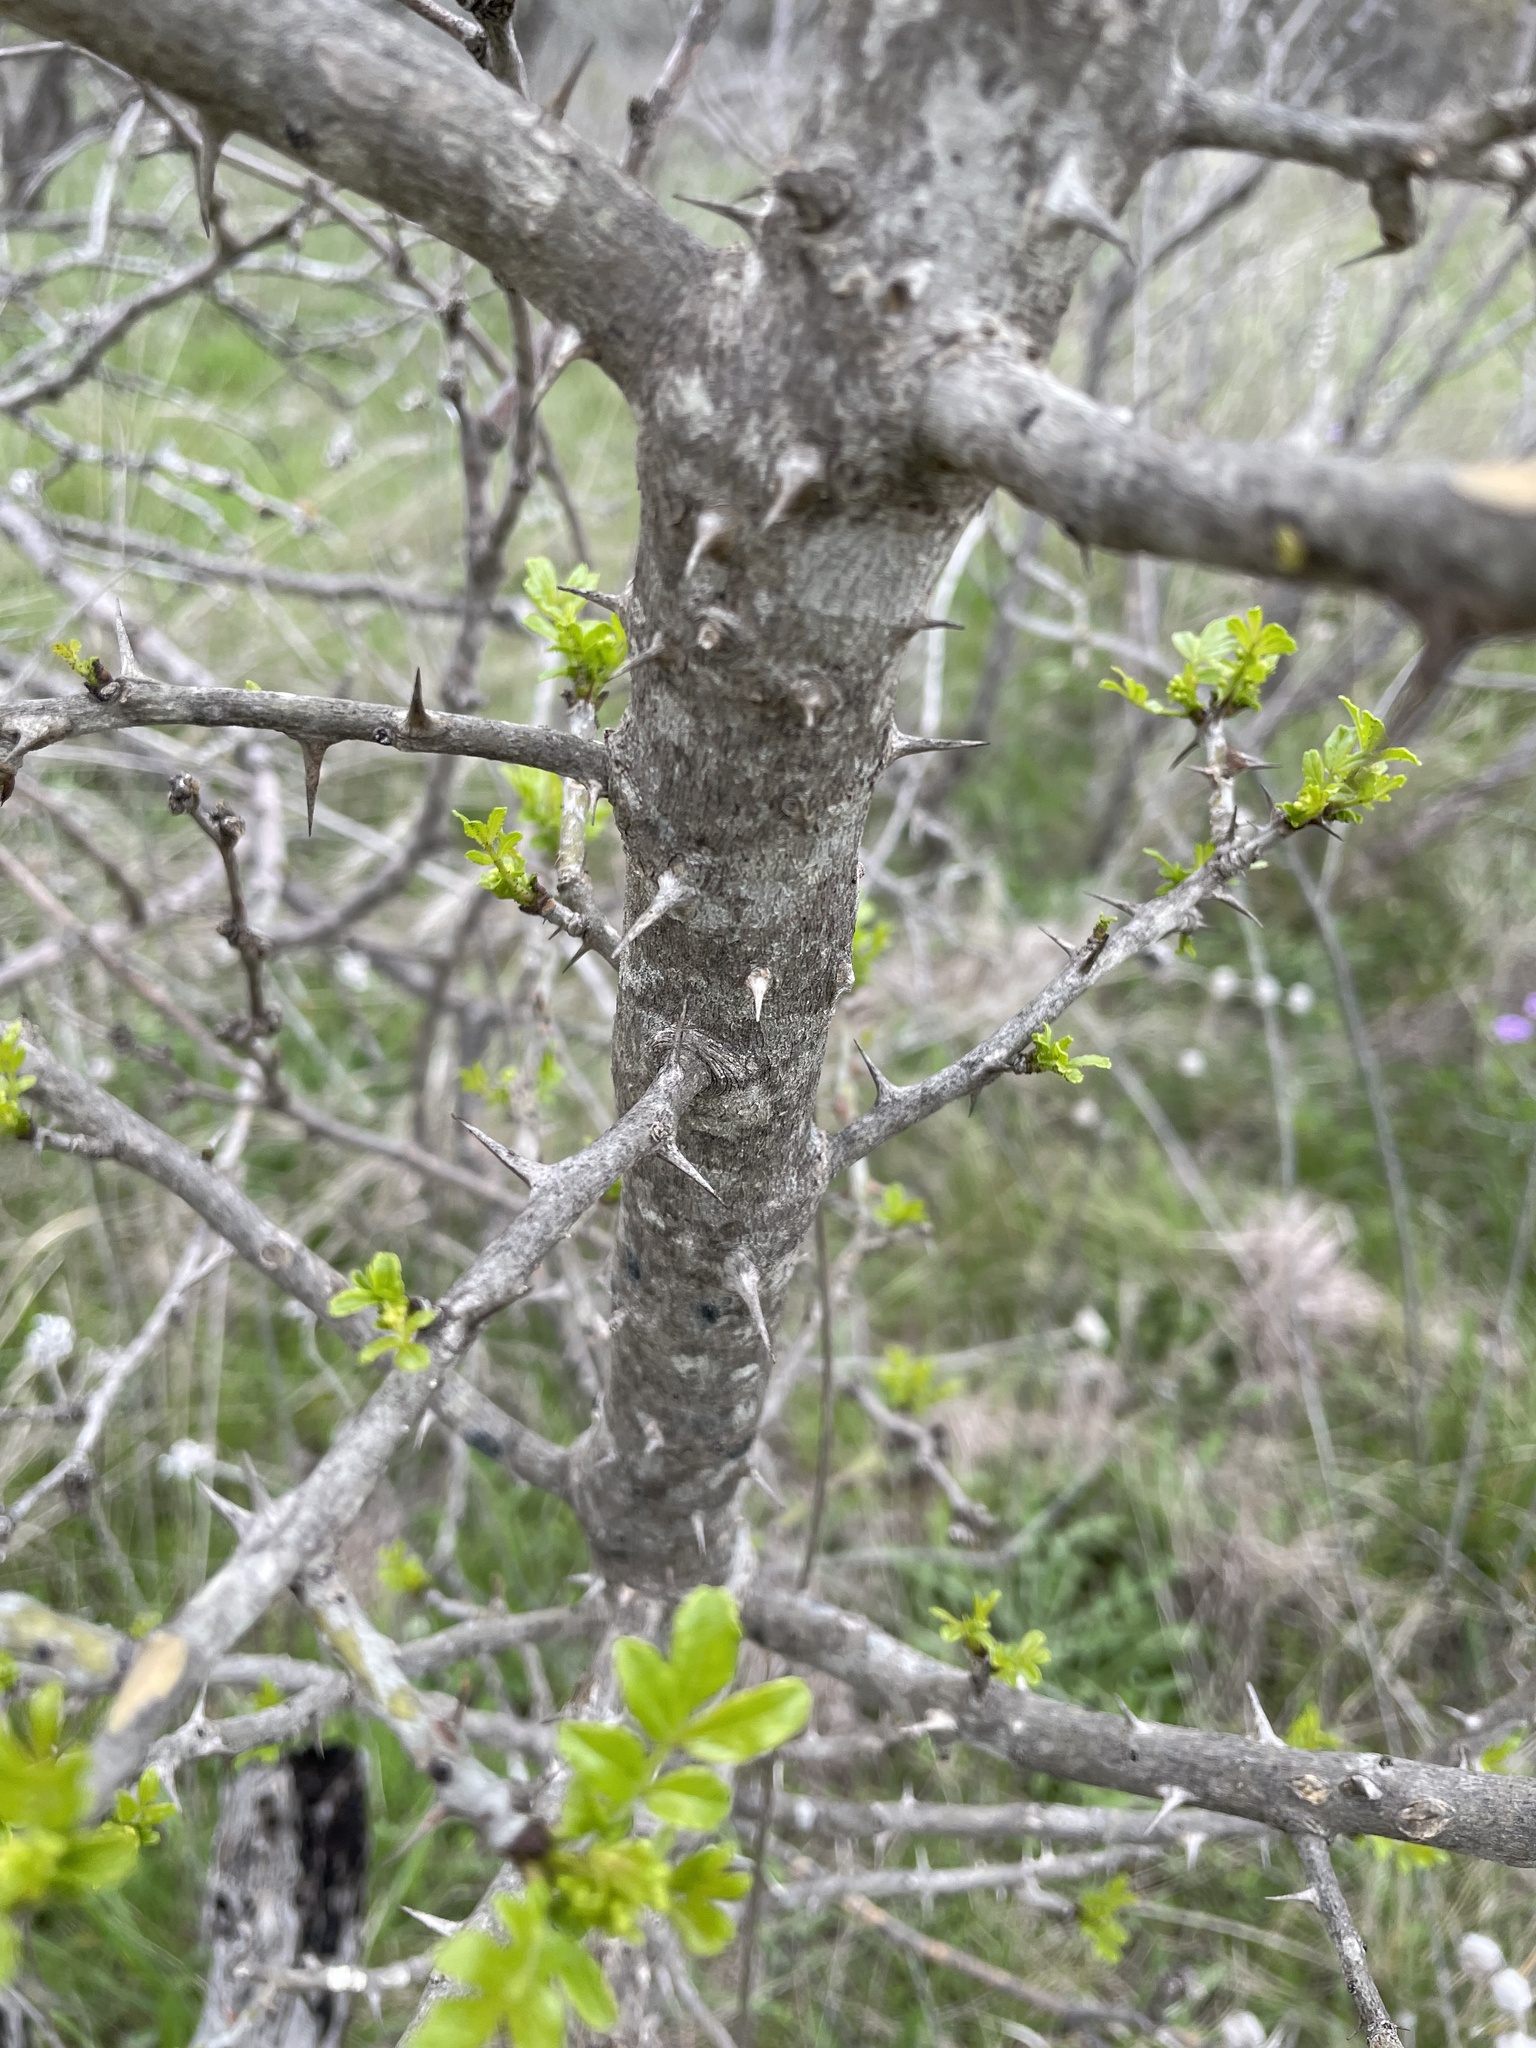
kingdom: Plantae
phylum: Tracheophyta
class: Magnoliopsida
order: Sapindales
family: Rutaceae
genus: Zanthoxylum
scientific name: Zanthoxylum clava-herculis
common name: Hercules'-club
